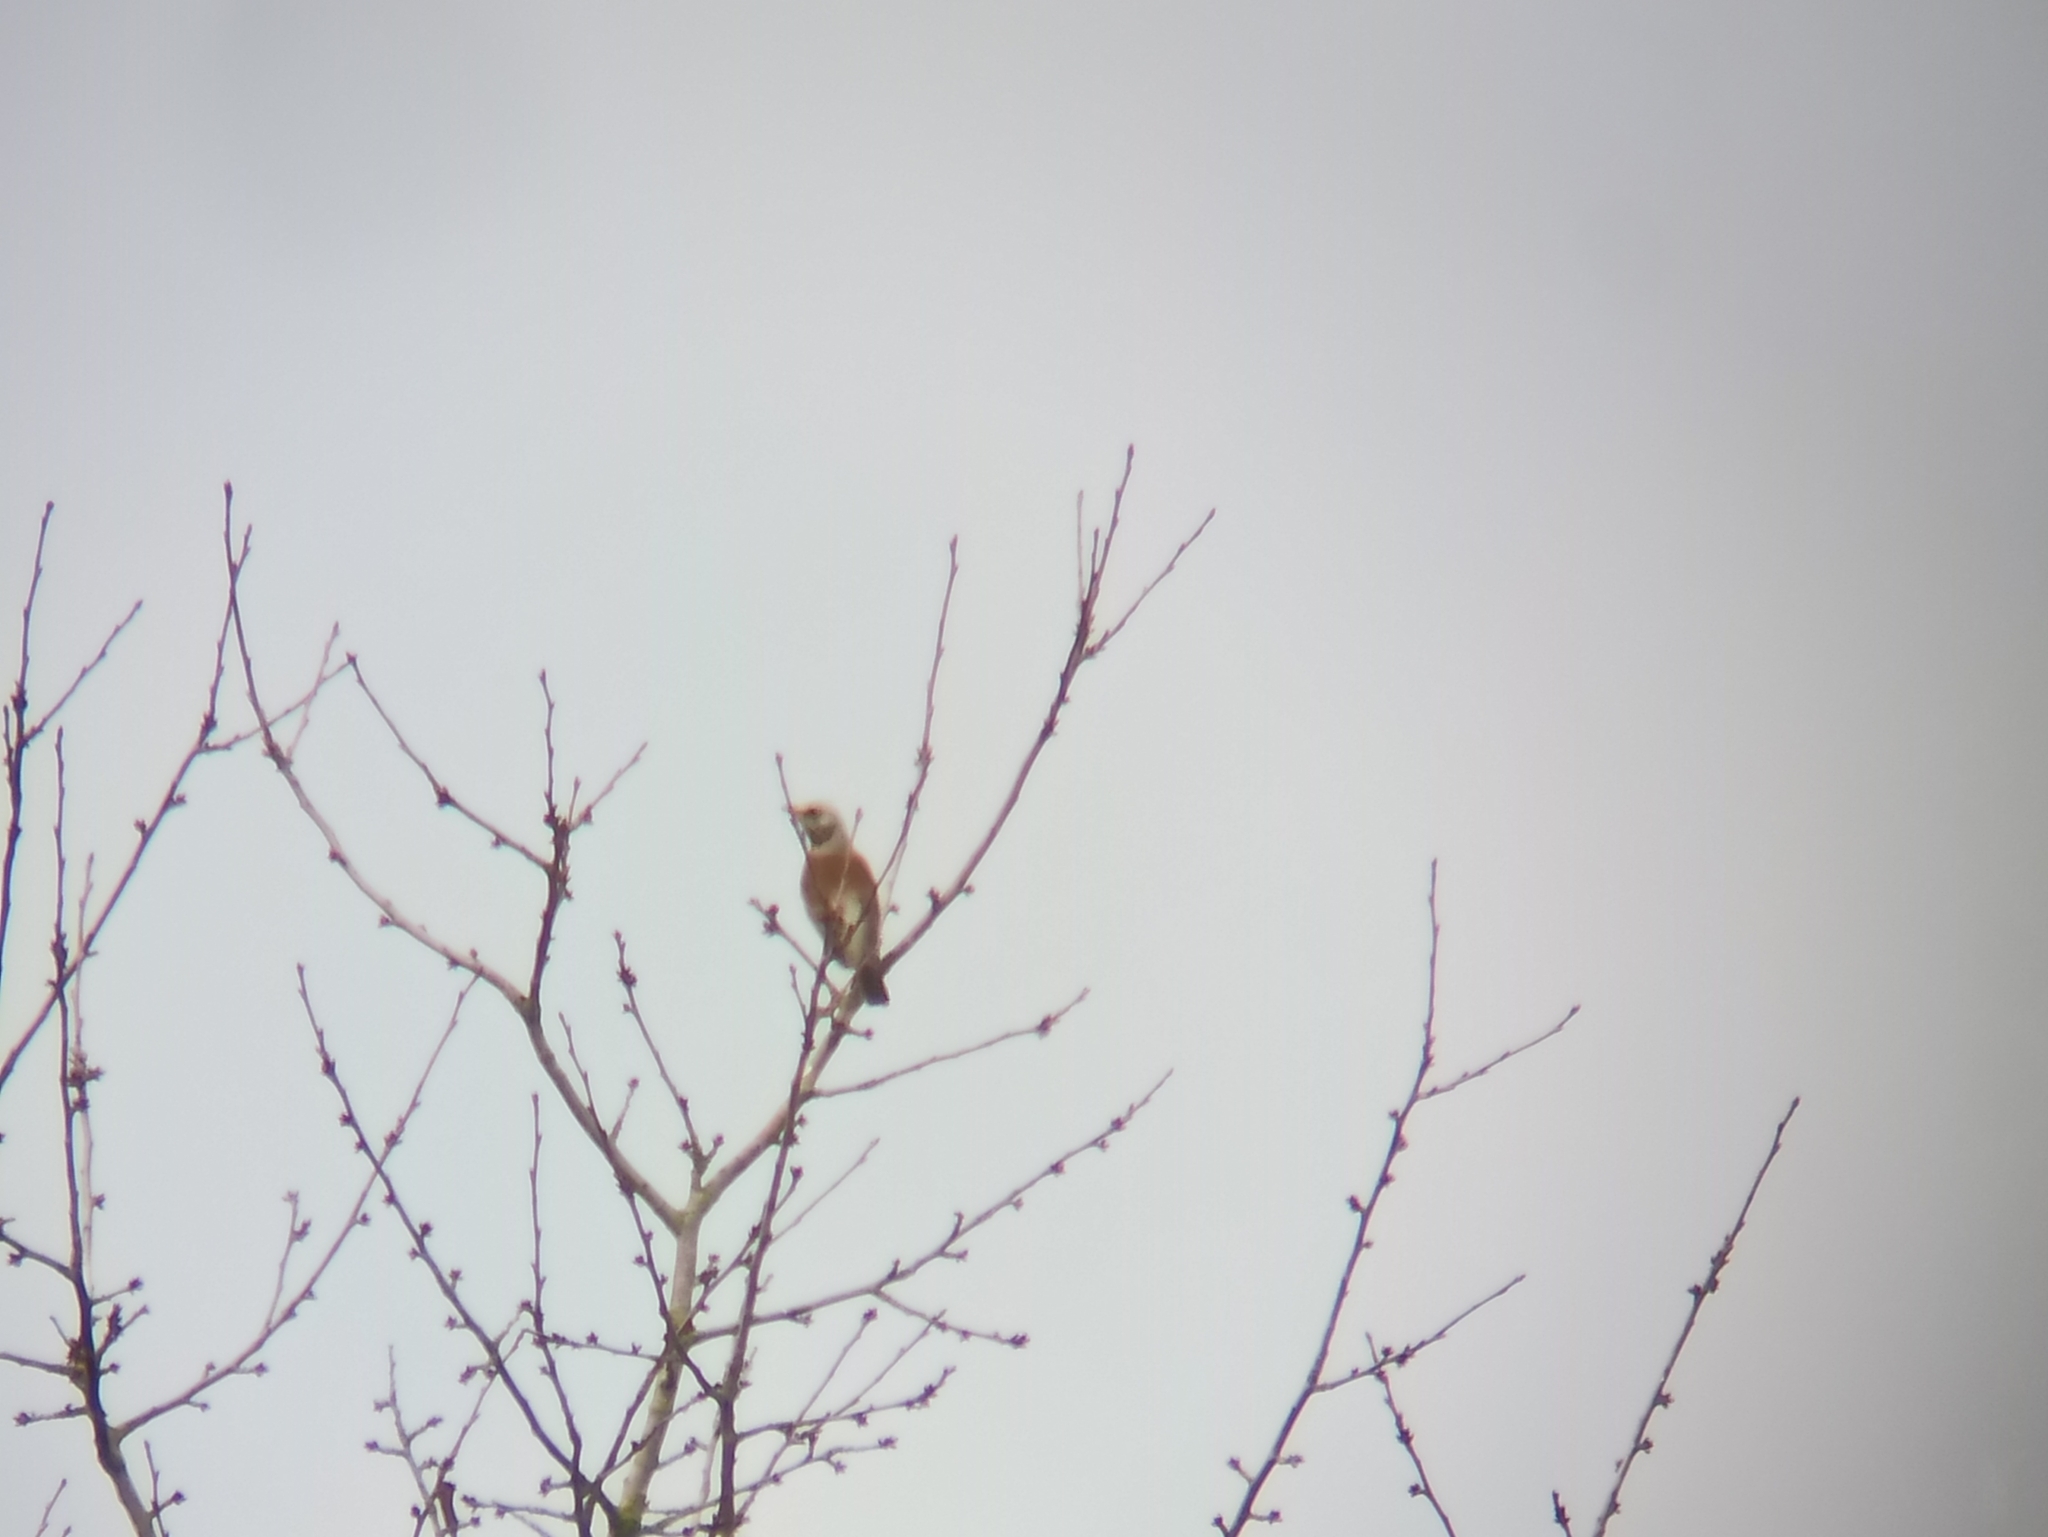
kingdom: Animalia
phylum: Chordata
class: Aves
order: Passeriformes
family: Turdidae
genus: Turdus
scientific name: Turdus pilaris
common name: Fieldfare
